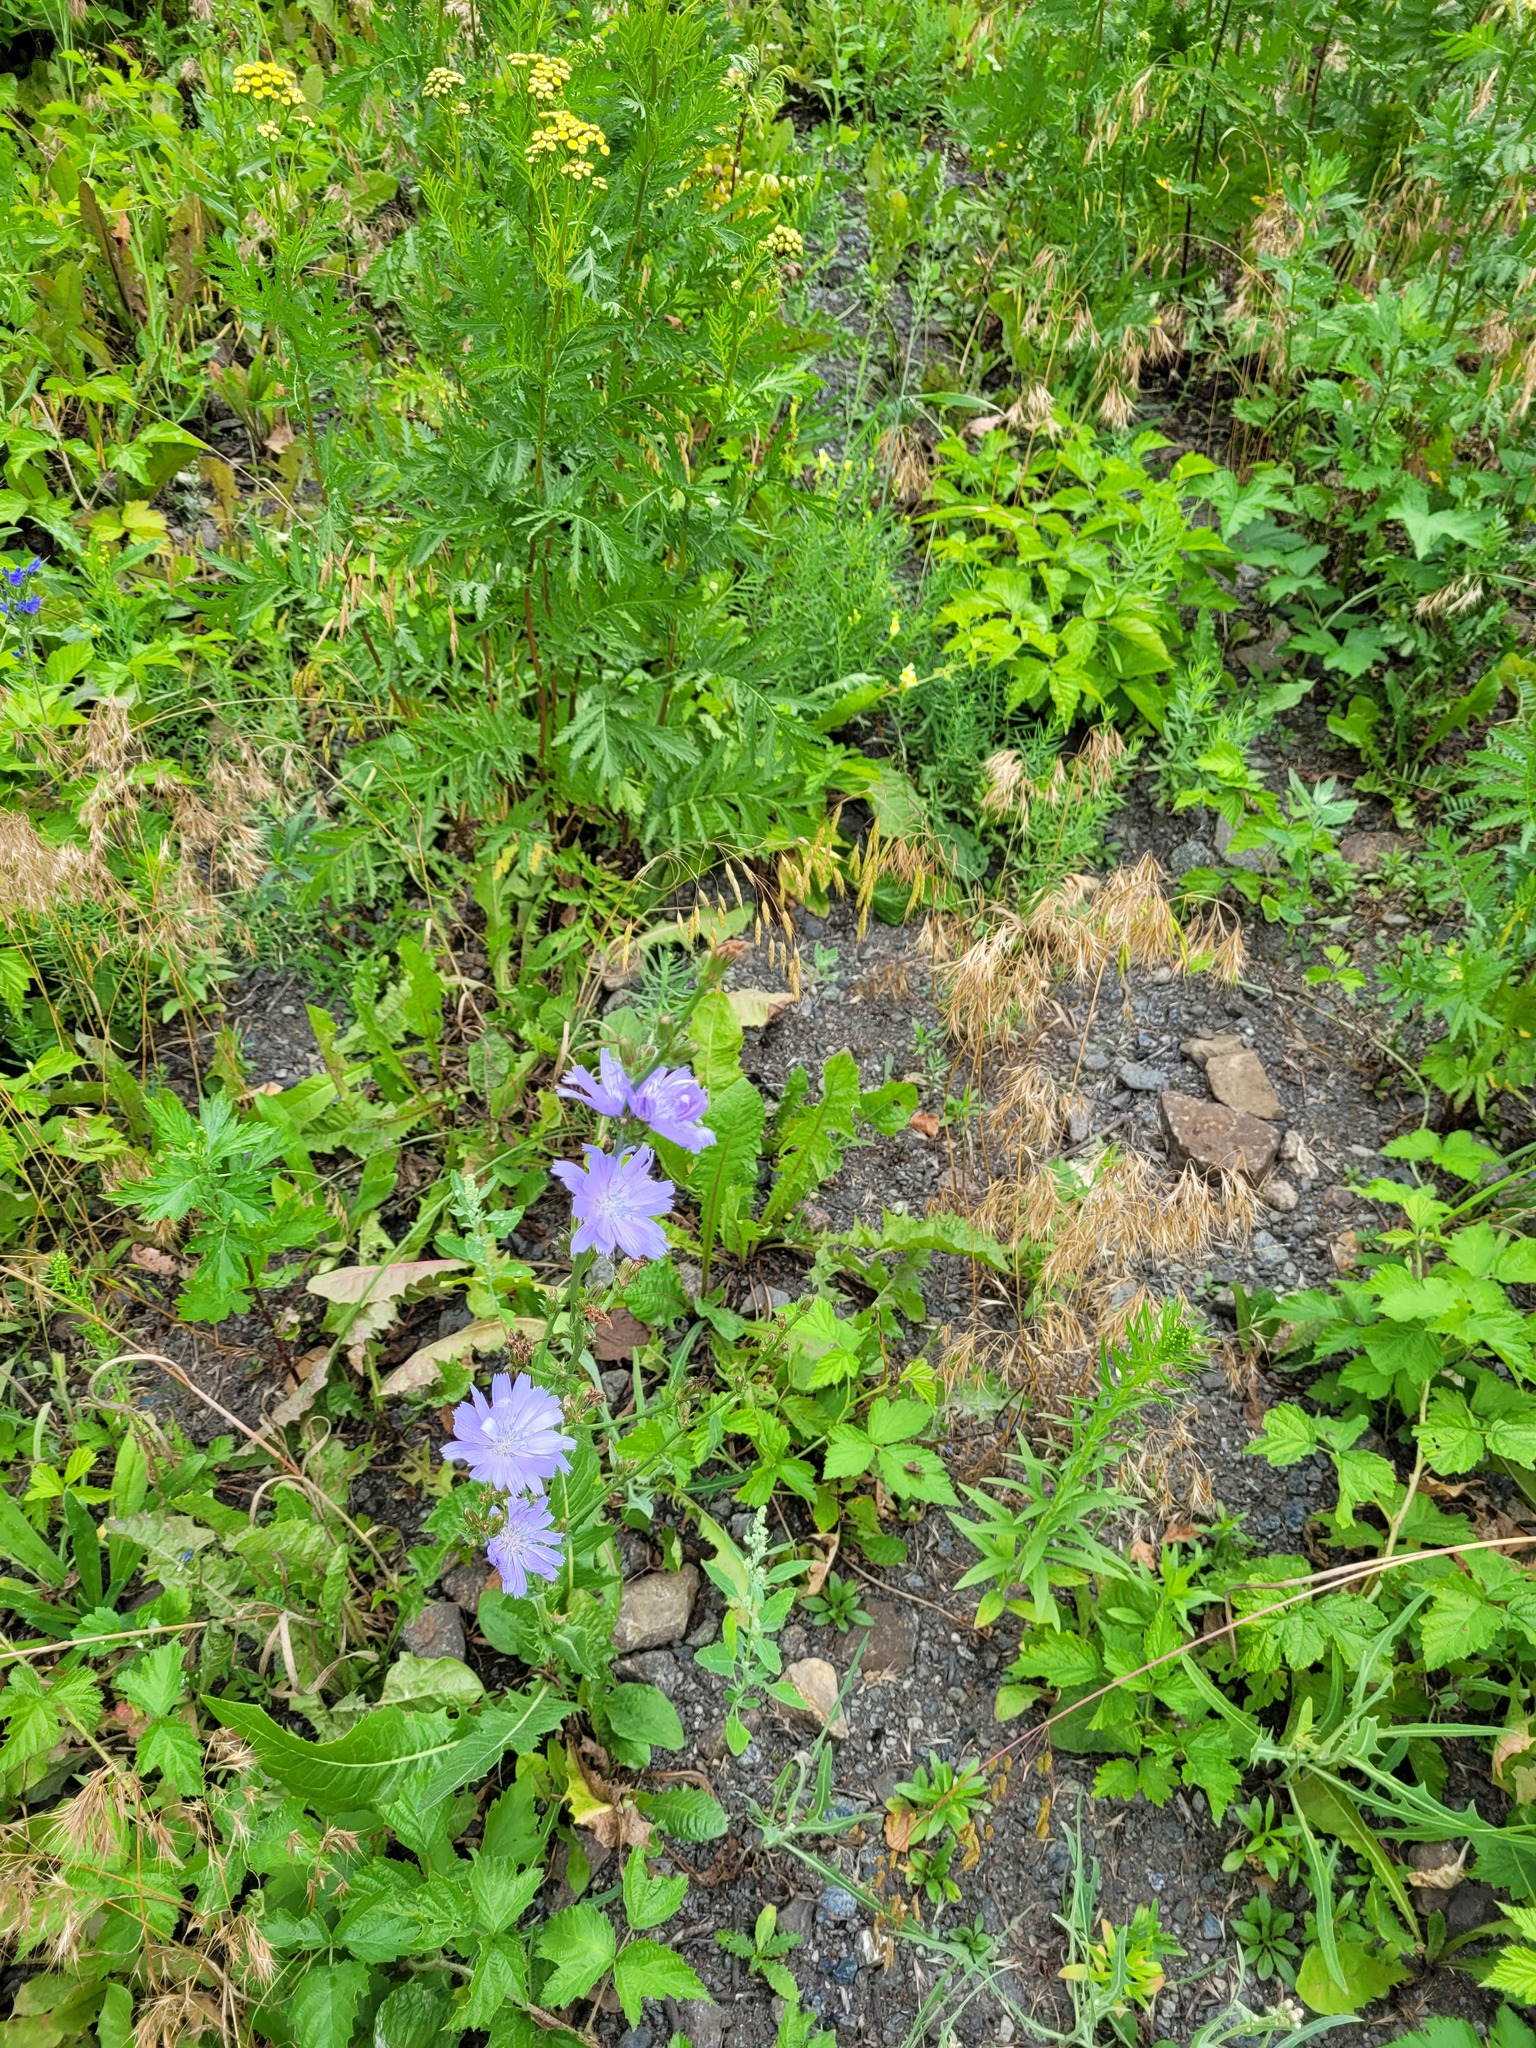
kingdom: Plantae
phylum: Tracheophyta
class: Magnoliopsida
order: Asterales
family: Asteraceae
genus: Cichorium
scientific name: Cichorium intybus
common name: Chicory
